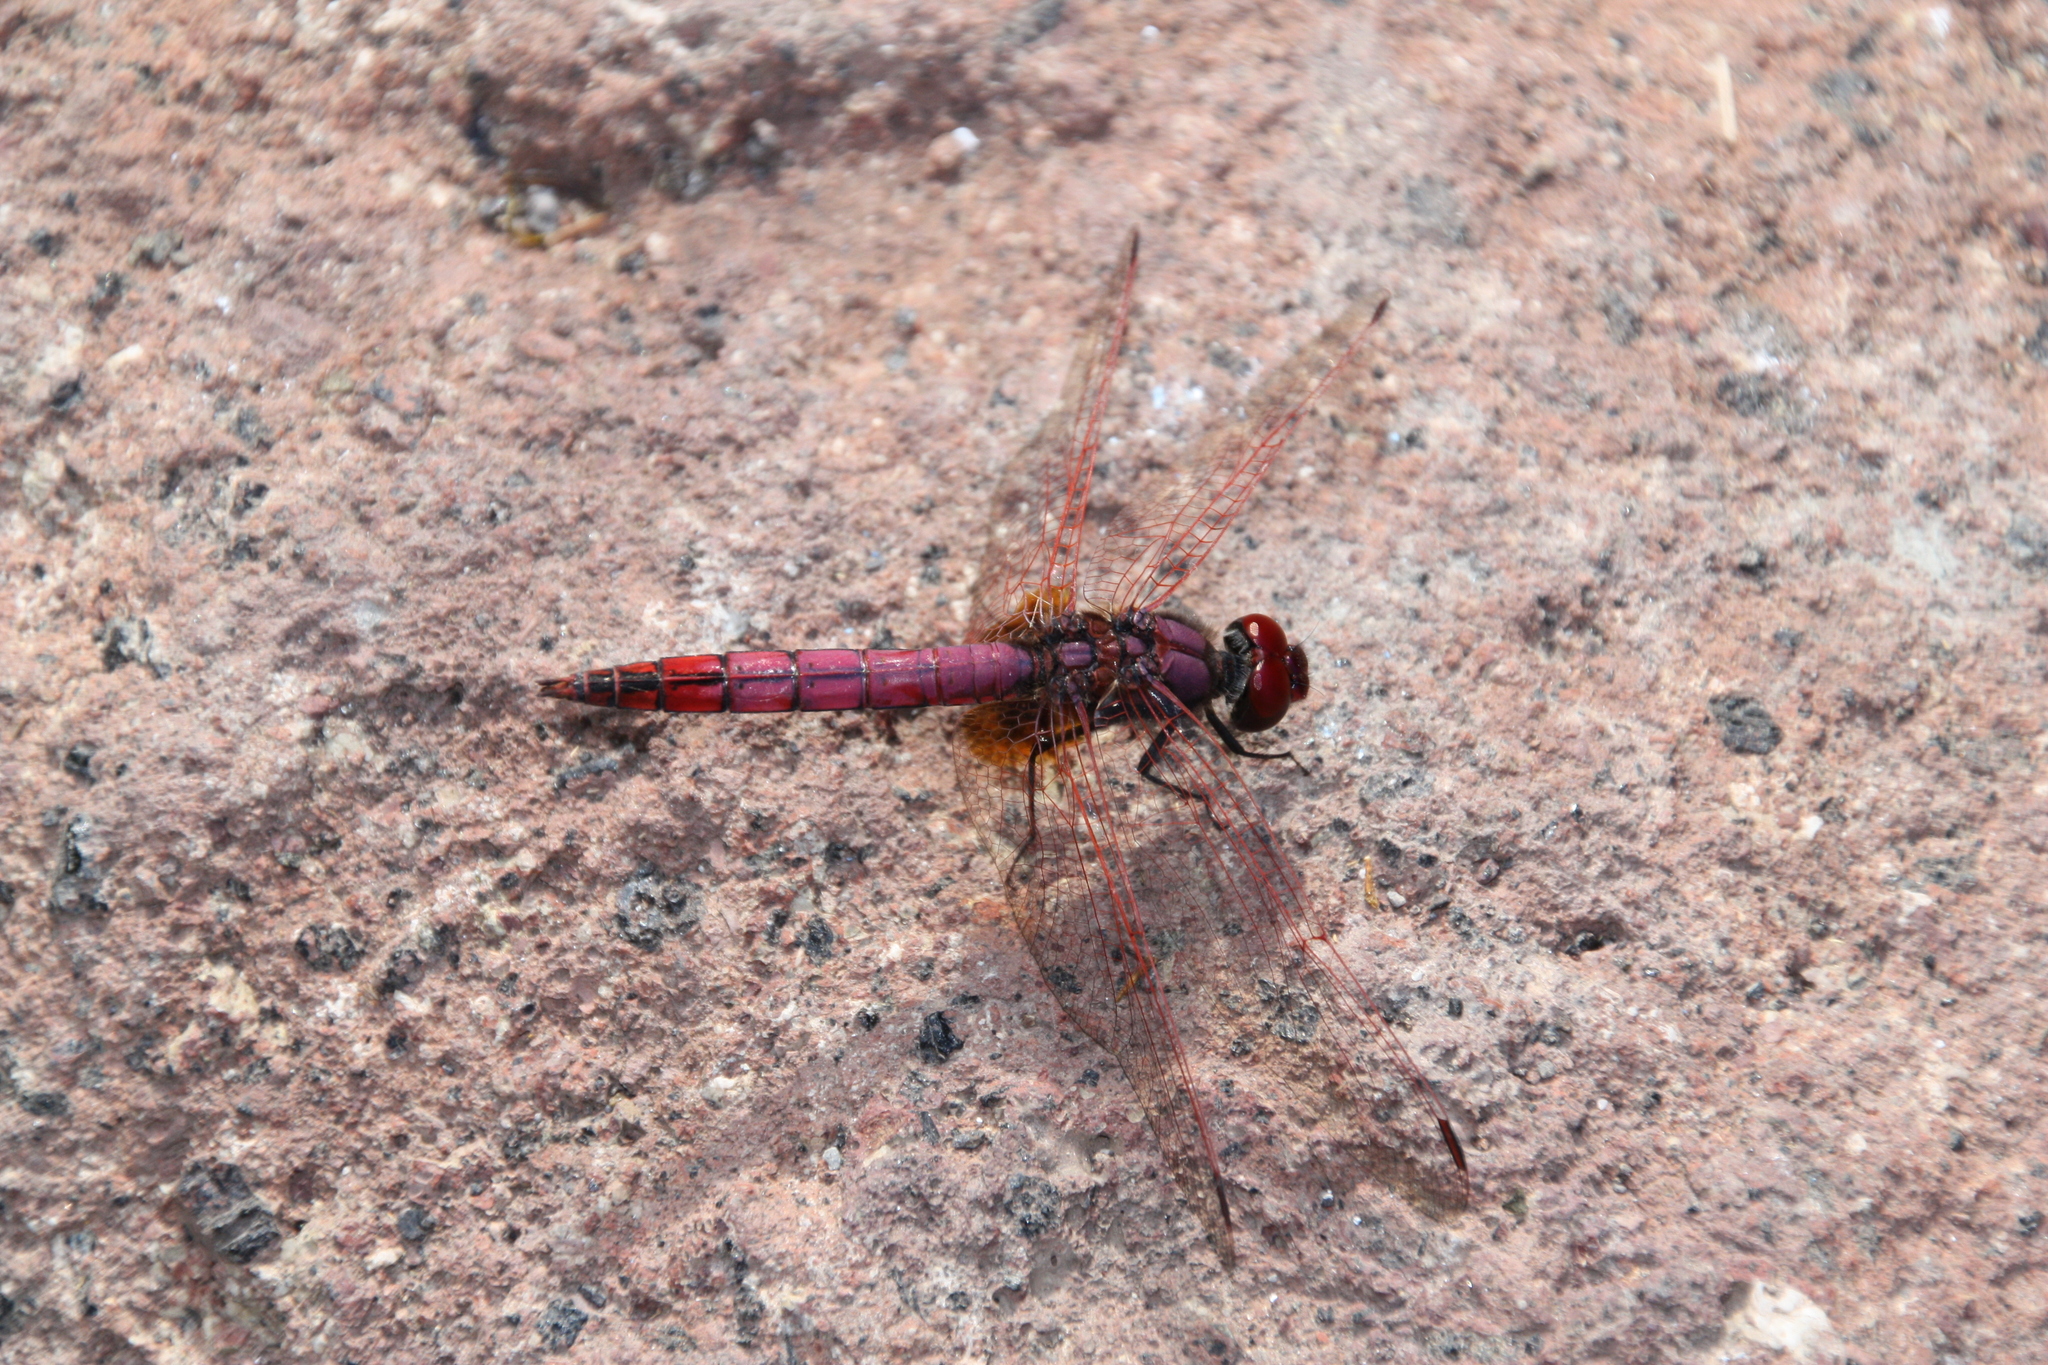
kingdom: Animalia
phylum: Arthropoda
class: Insecta
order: Odonata
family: Libellulidae
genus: Trithemis
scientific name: Trithemis annulata
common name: Violet dropwing
